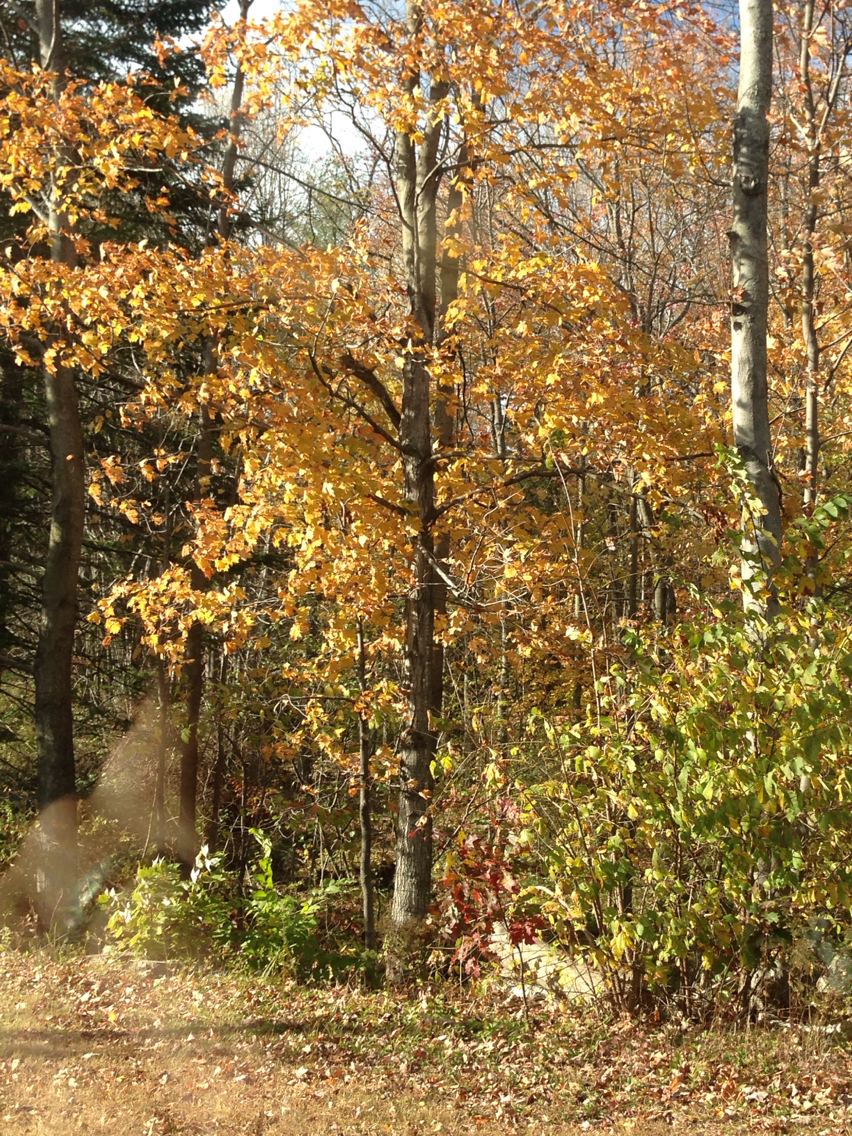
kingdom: Plantae
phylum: Tracheophyta
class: Magnoliopsida
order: Sapindales
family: Sapindaceae
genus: Acer
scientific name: Acer saccharum
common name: Sugar maple
